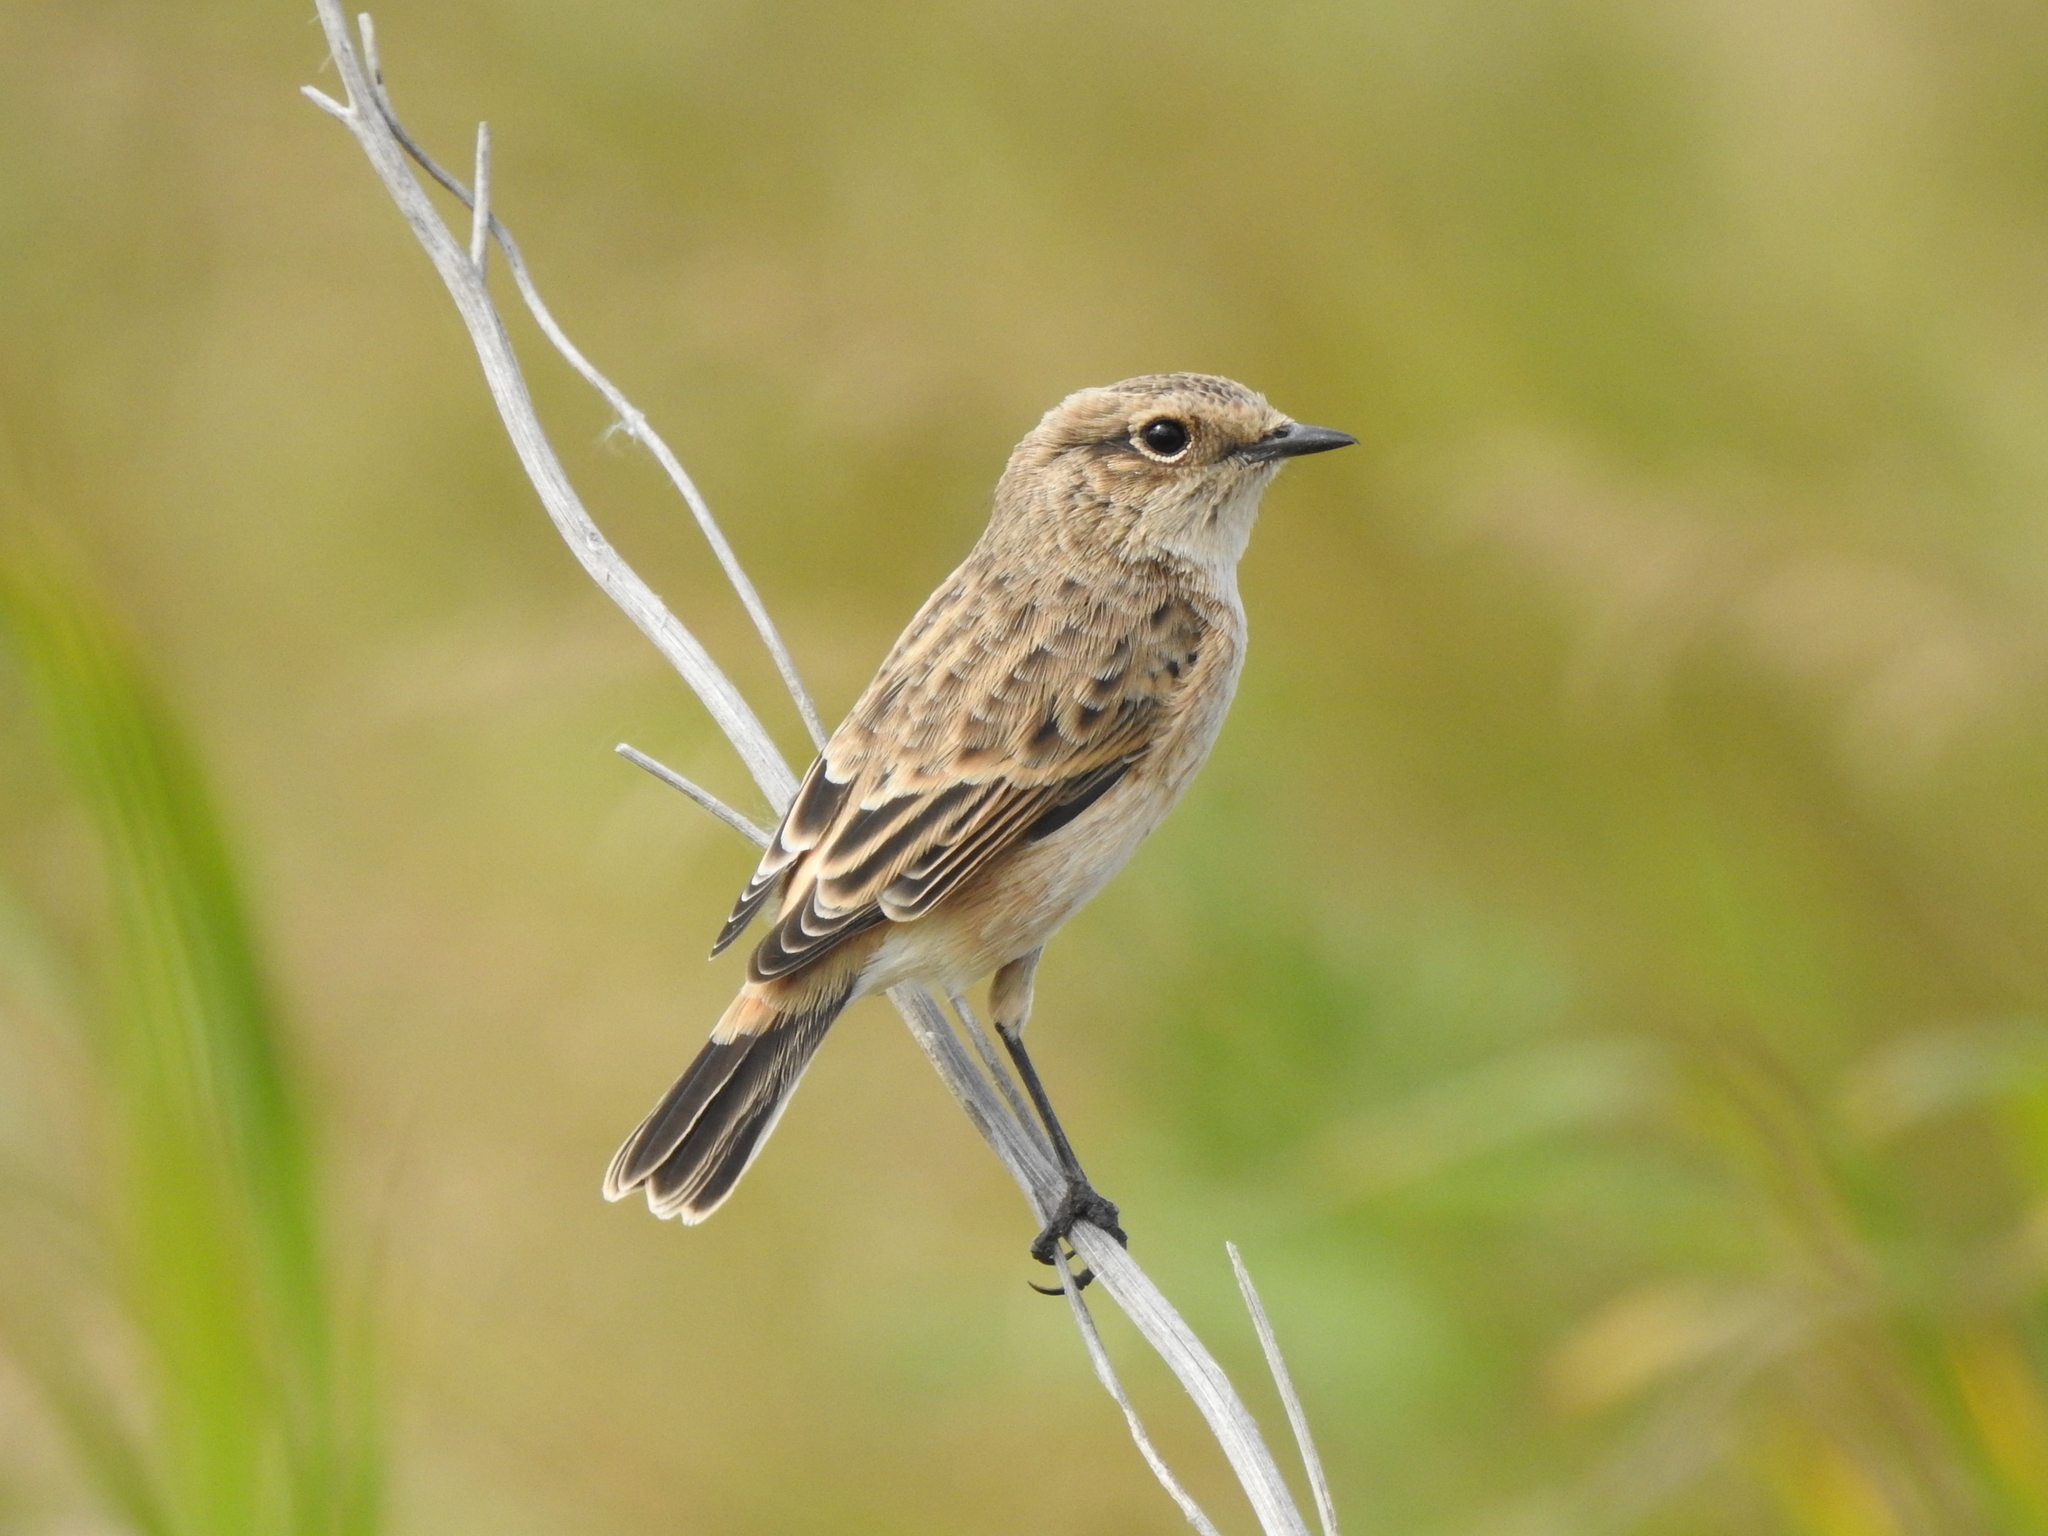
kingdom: Animalia
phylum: Chordata
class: Aves
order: Passeriformes
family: Muscicapidae
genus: Saxicola
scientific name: Saxicola maurus
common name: Siberian stonechat
